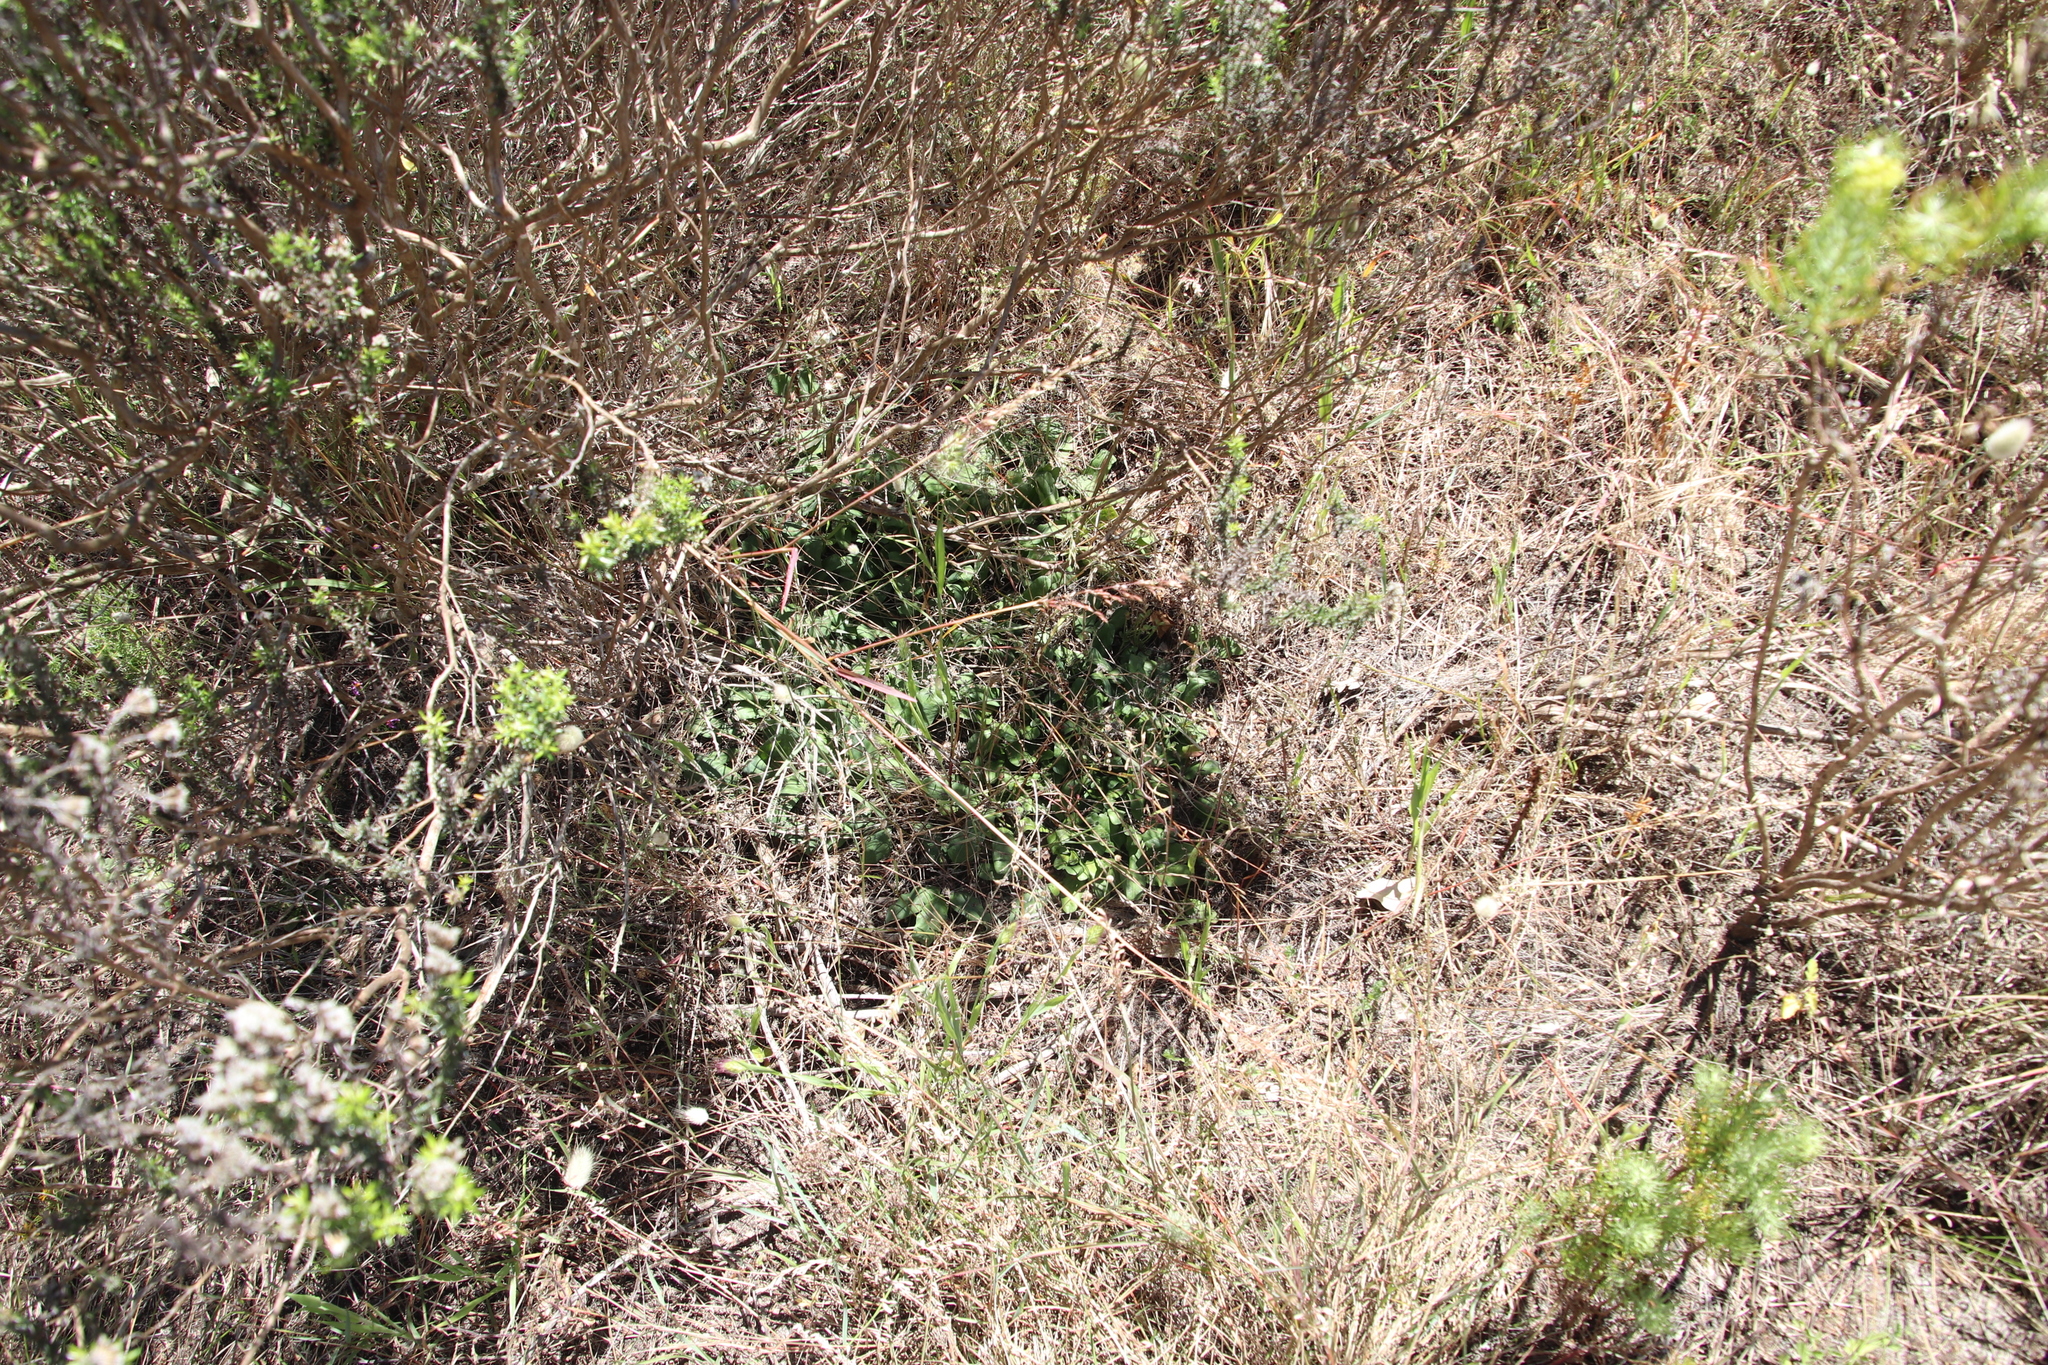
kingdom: Plantae
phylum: Tracheophyta
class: Magnoliopsida
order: Malpighiales
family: Euphorbiaceae
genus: Euphorbia
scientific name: Euphorbia tuberosa
